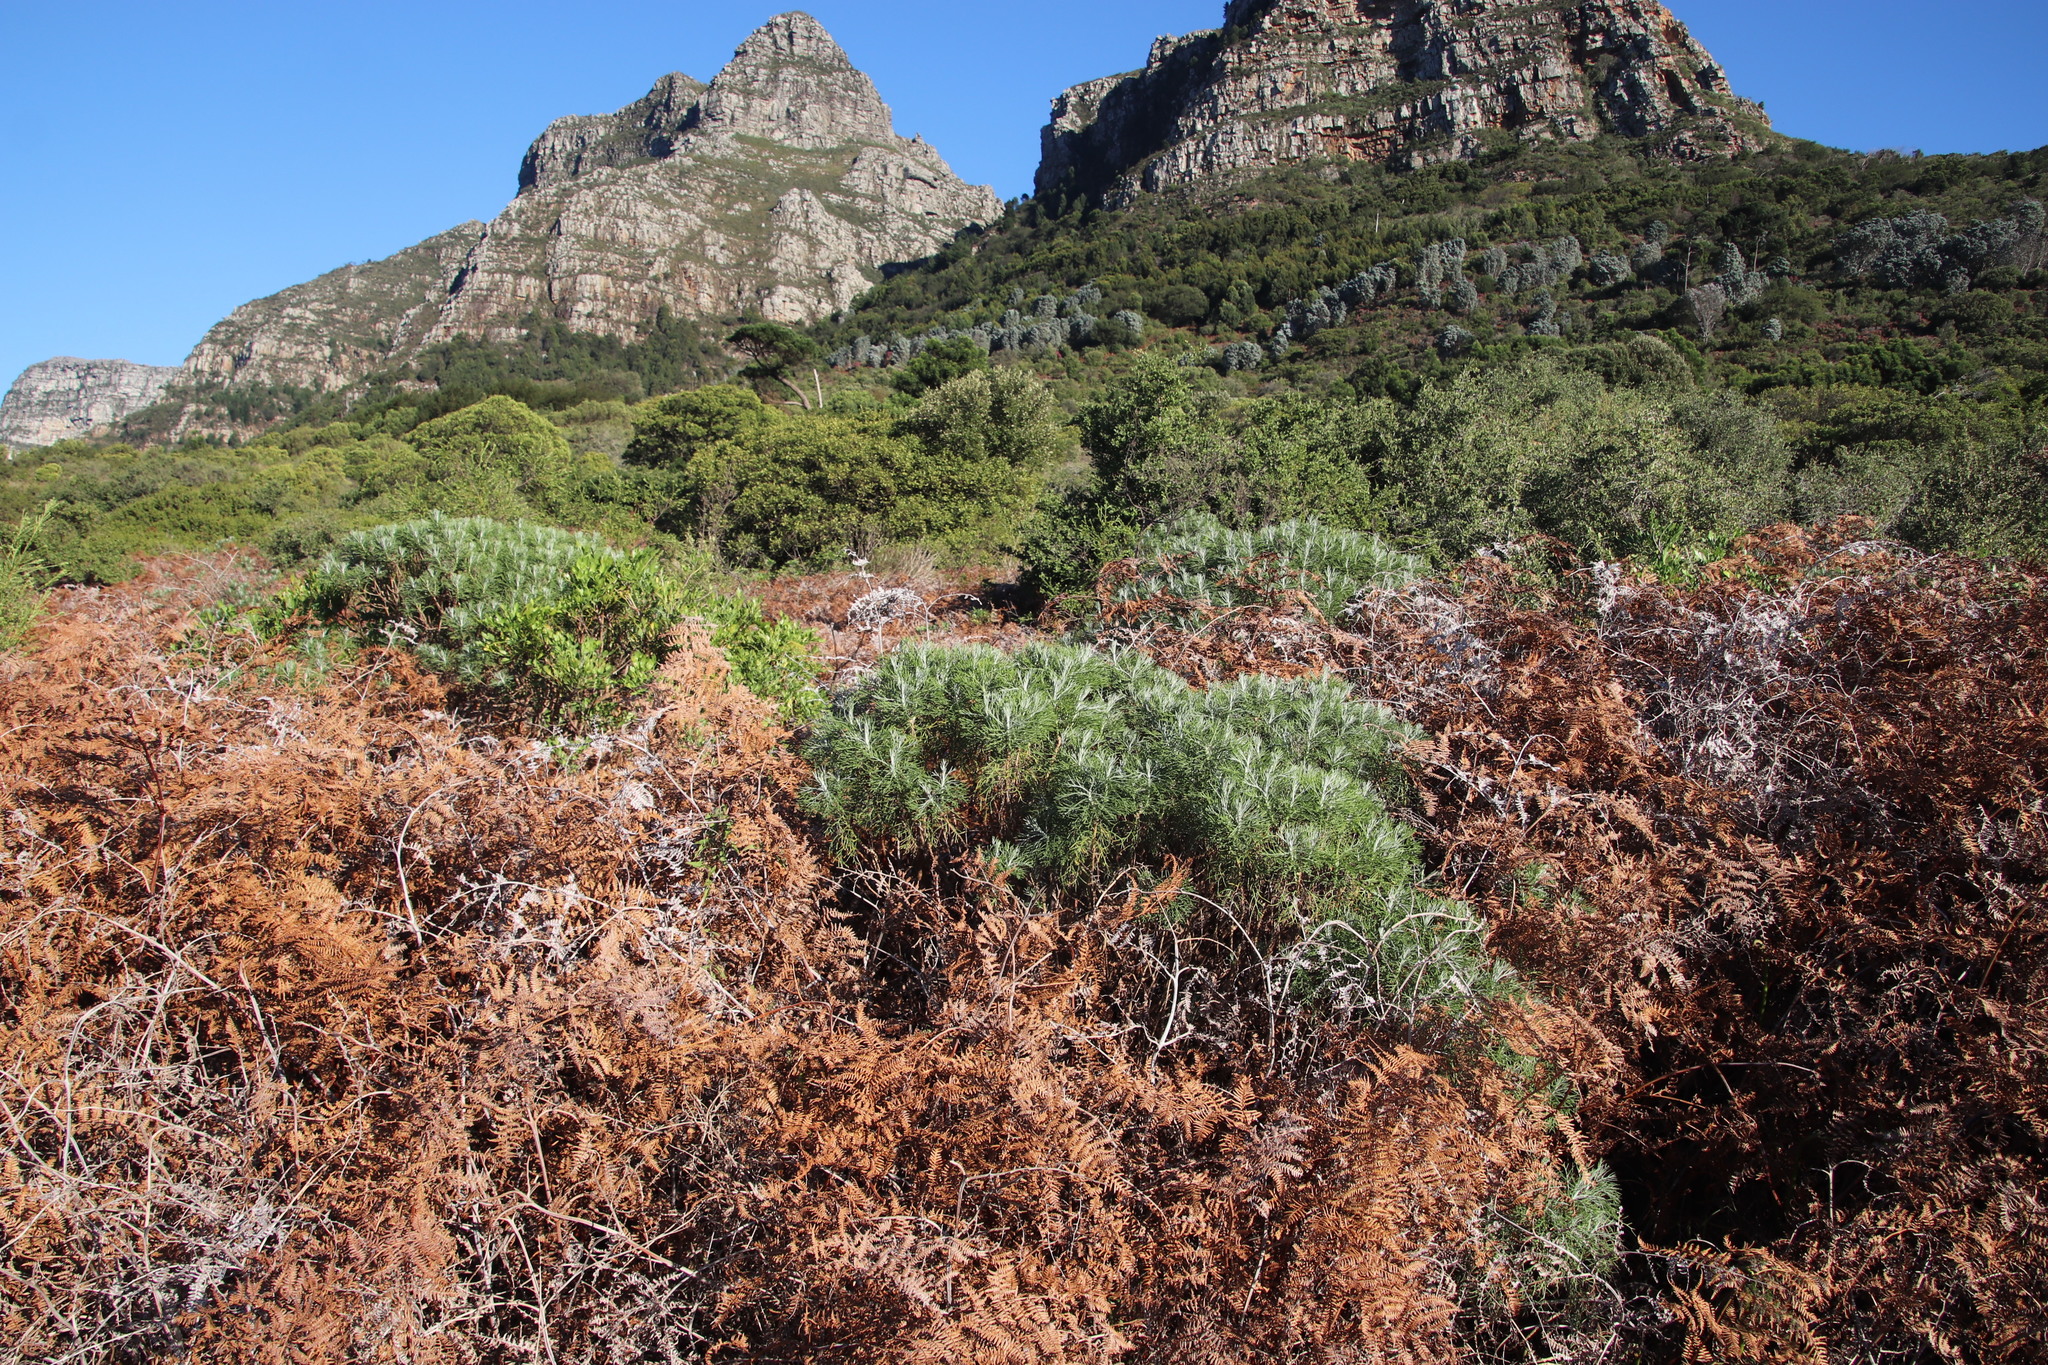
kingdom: Plantae
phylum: Tracheophyta
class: Magnoliopsida
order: Asterales
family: Asteraceae
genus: Athanasia
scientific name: Athanasia crithmifolia
